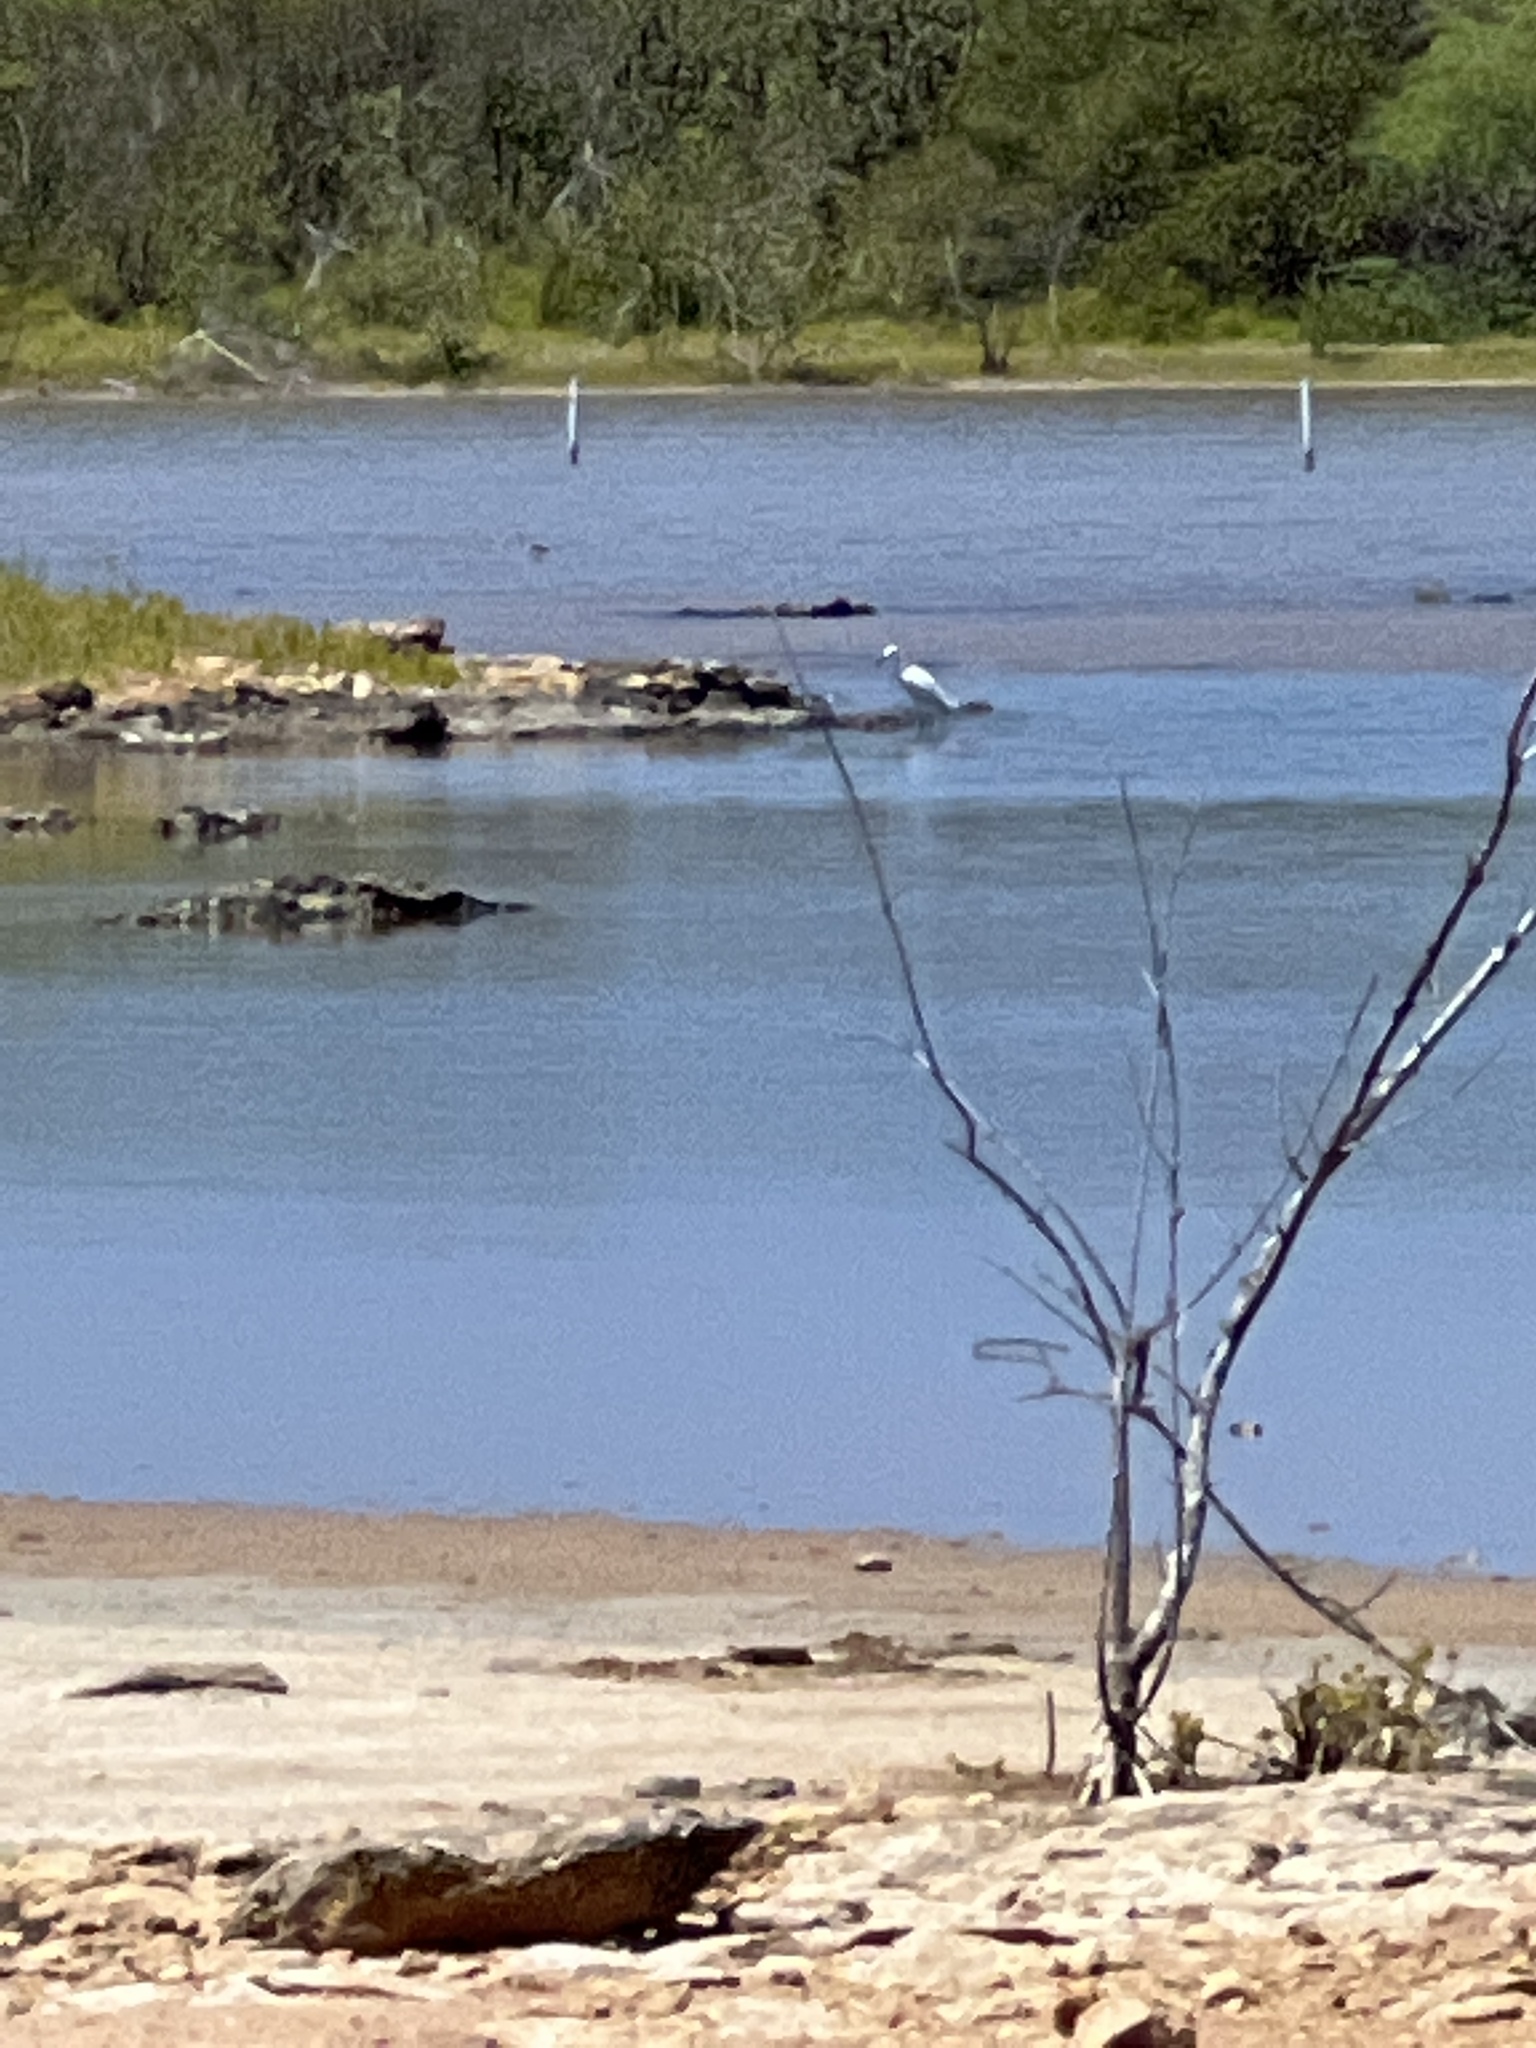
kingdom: Animalia
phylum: Chordata
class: Aves
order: Pelecaniformes
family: Ardeidae
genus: Egretta
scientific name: Egretta thula
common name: Snowy egret
